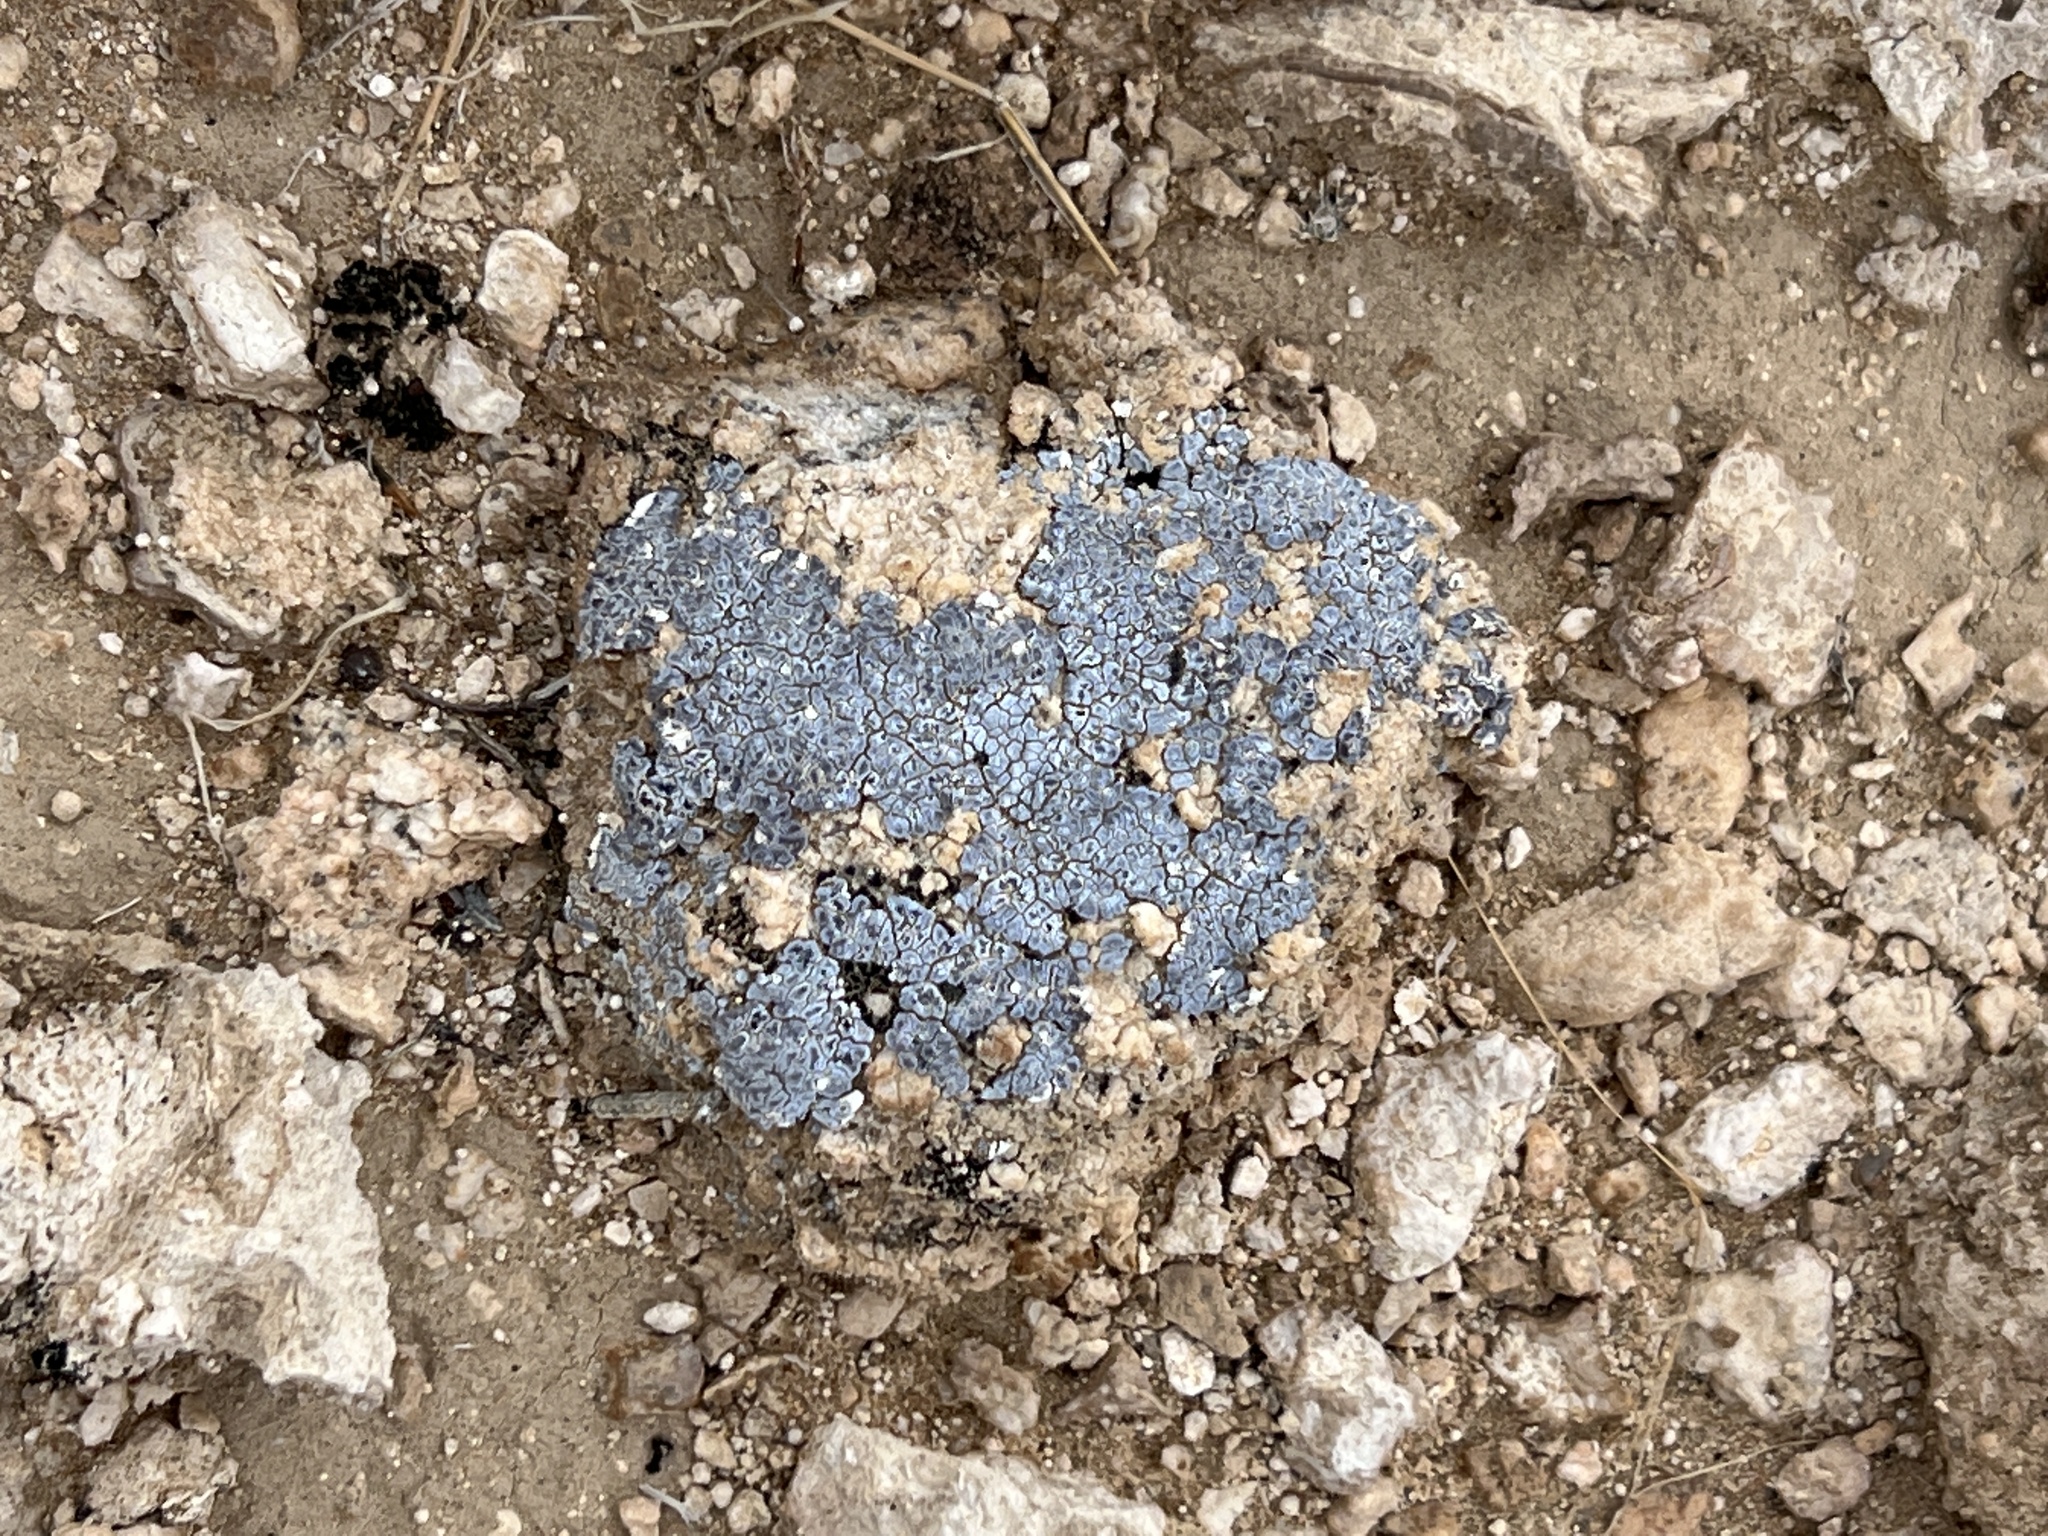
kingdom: Fungi
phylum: Ascomycota
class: Lecanoromycetes
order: Acarosporales
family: Acarosporaceae
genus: Acarospora
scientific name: Acarospora strigata
